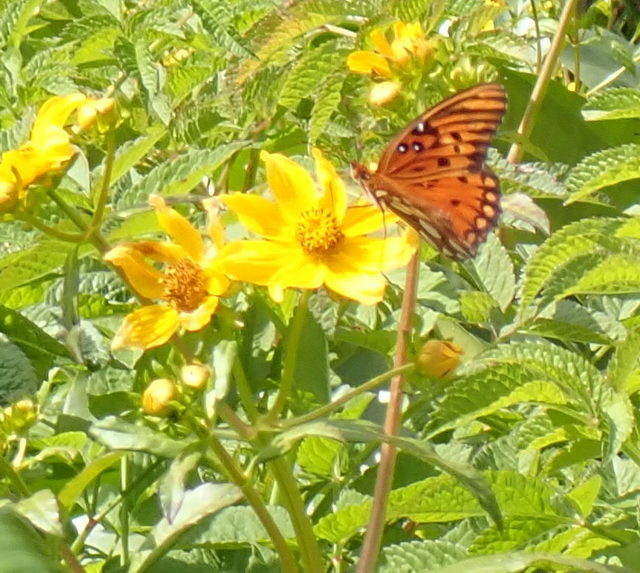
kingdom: Animalia
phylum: Arthropoda
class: Insecta
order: Lepidoptera
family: Nymphalidae
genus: Dione
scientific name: Dione vanillae
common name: Gulf fritillary
